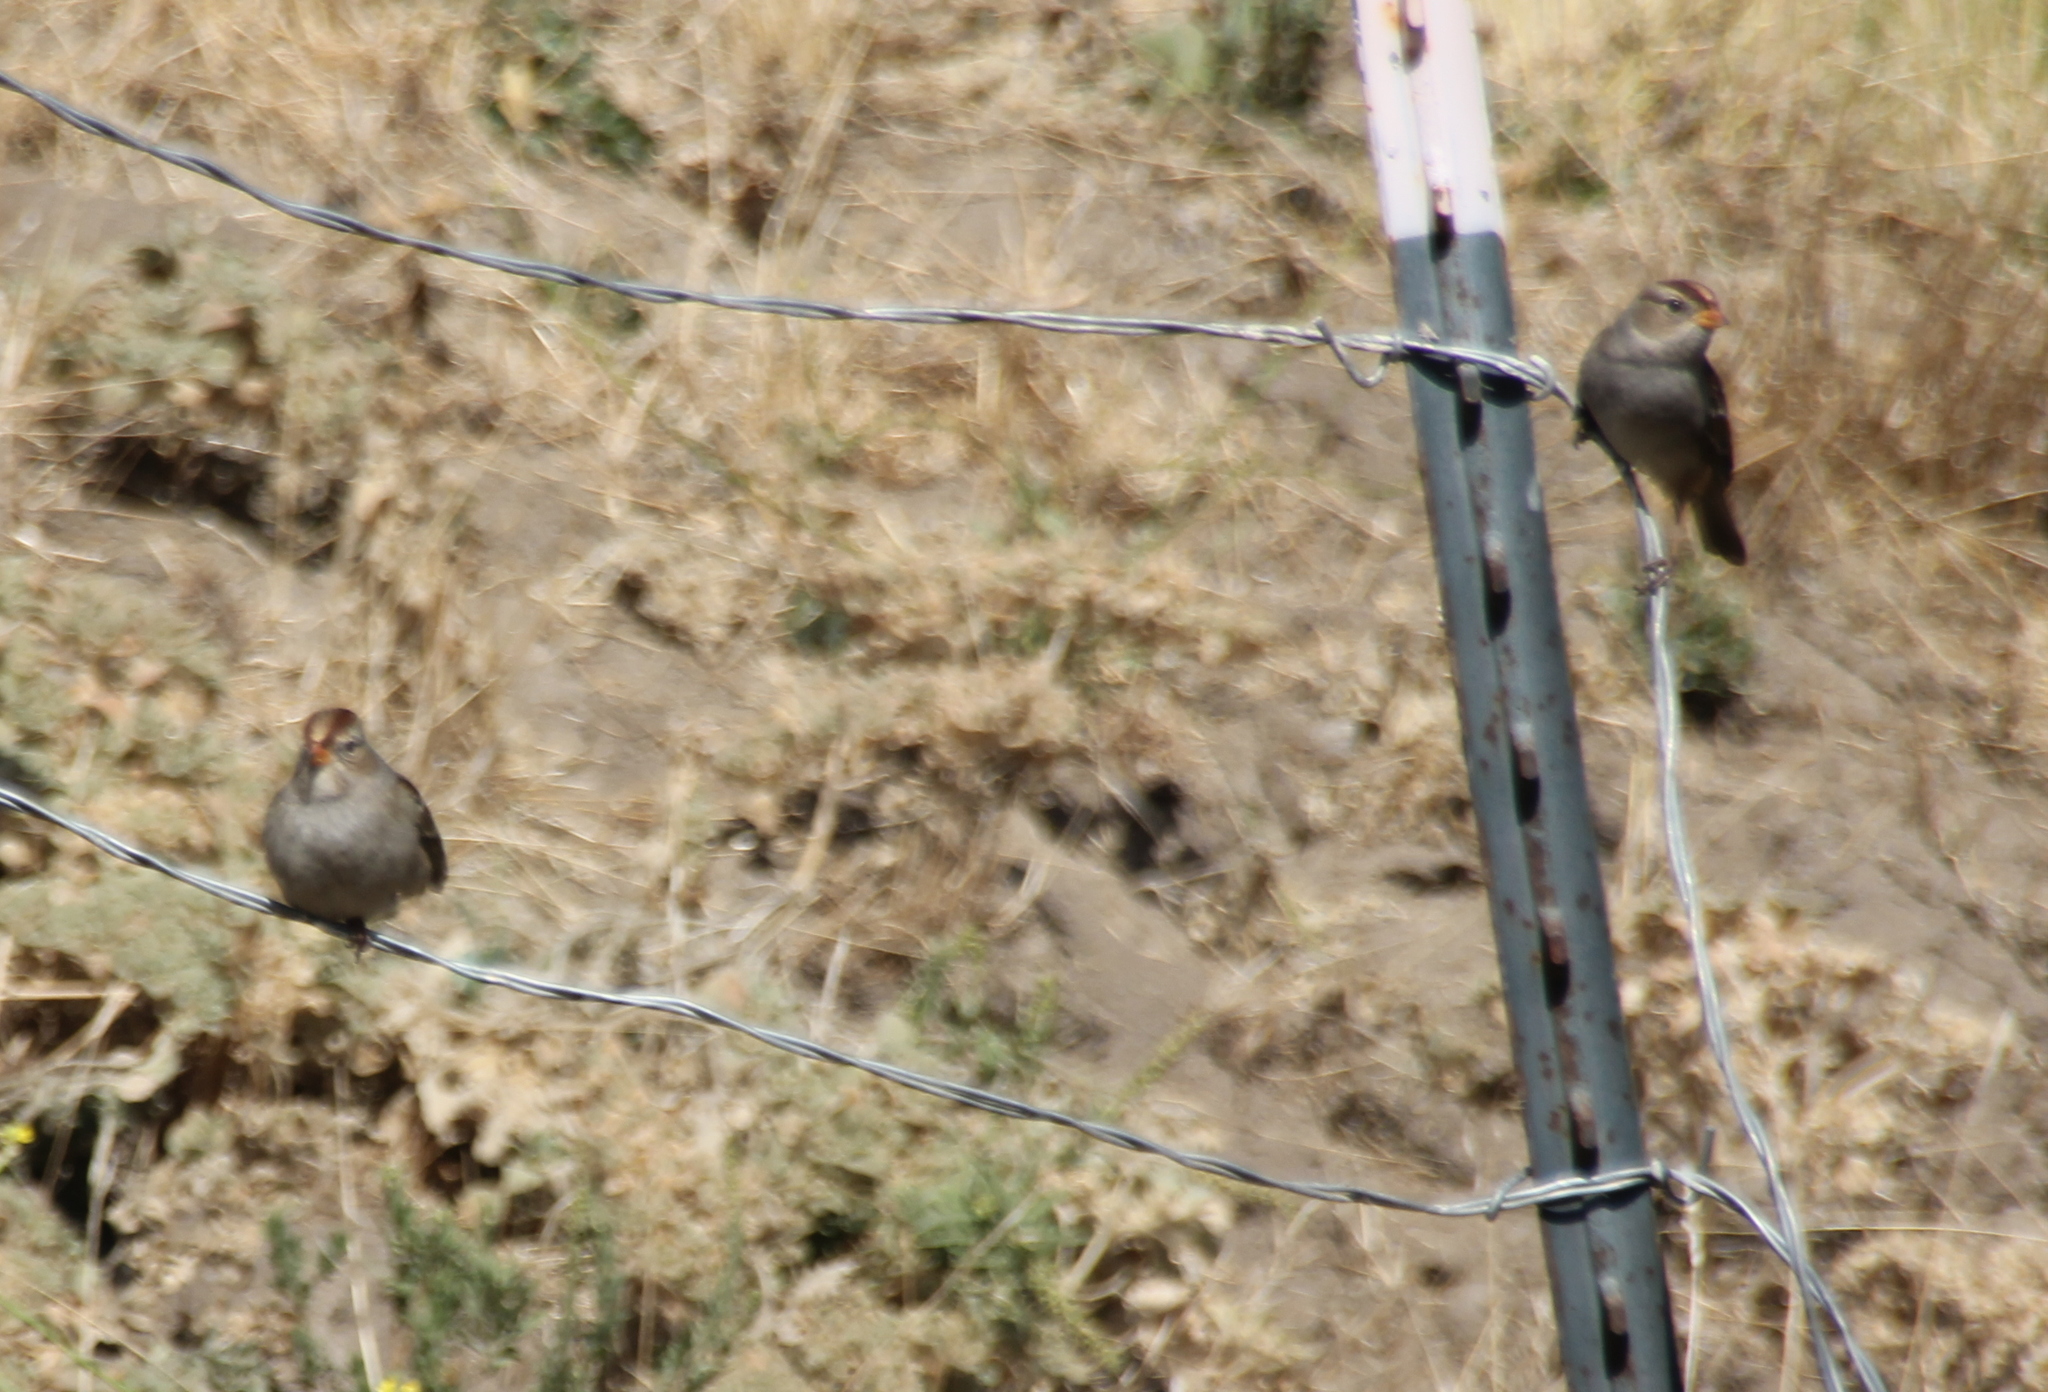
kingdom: Animalia
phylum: Chordata
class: Aves
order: Passeriformes
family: Passerellidae
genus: Zonotrichia
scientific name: Zonotrichia leucophrys
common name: White-crowned sparrow
